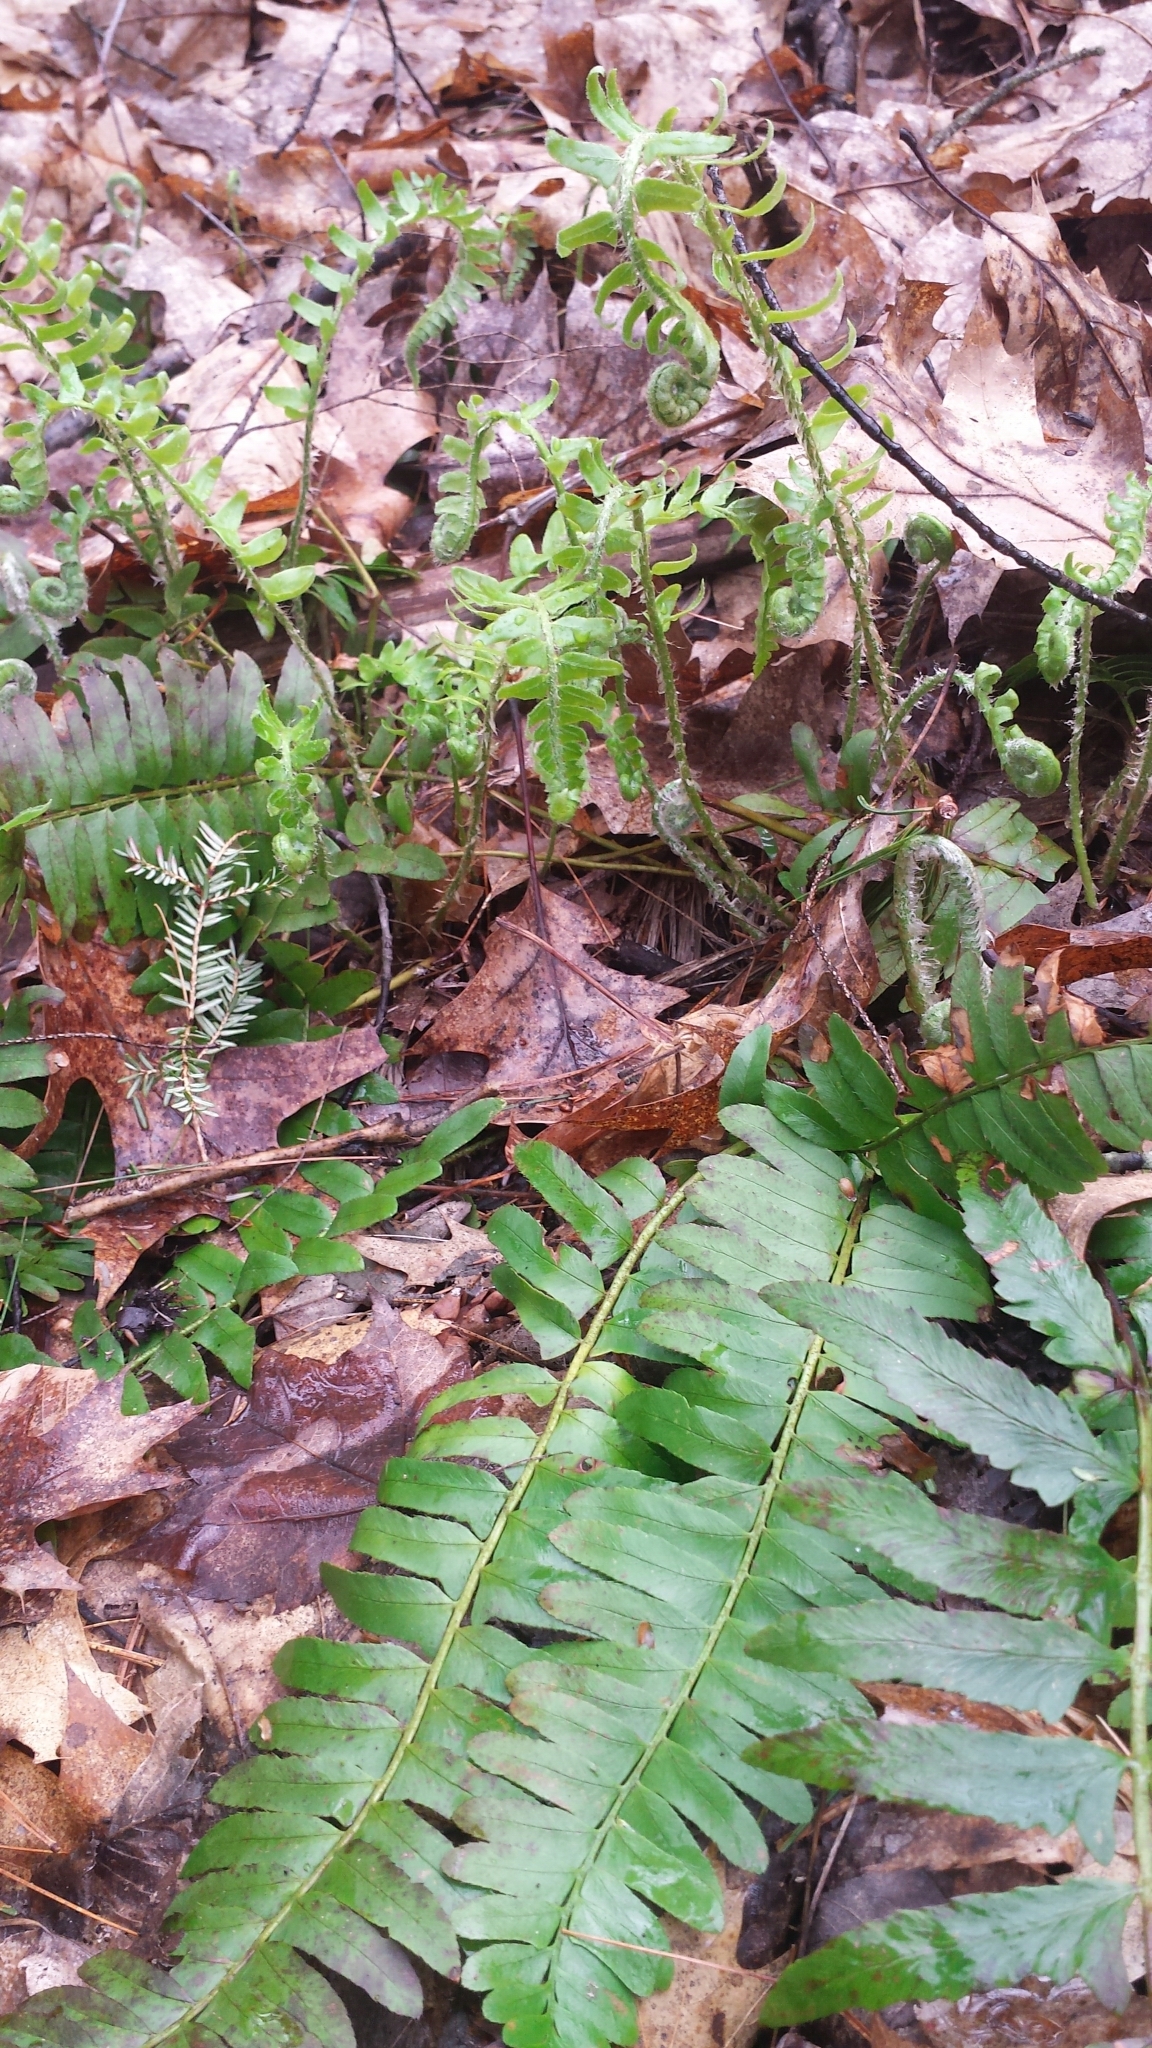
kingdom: Plantae
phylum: Tracheophyta
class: Polypodiopsida
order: Polypodiales
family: Dryopteridaceae
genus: Polystichum
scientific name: Polystichum acrostichoides
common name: Christmas fern
